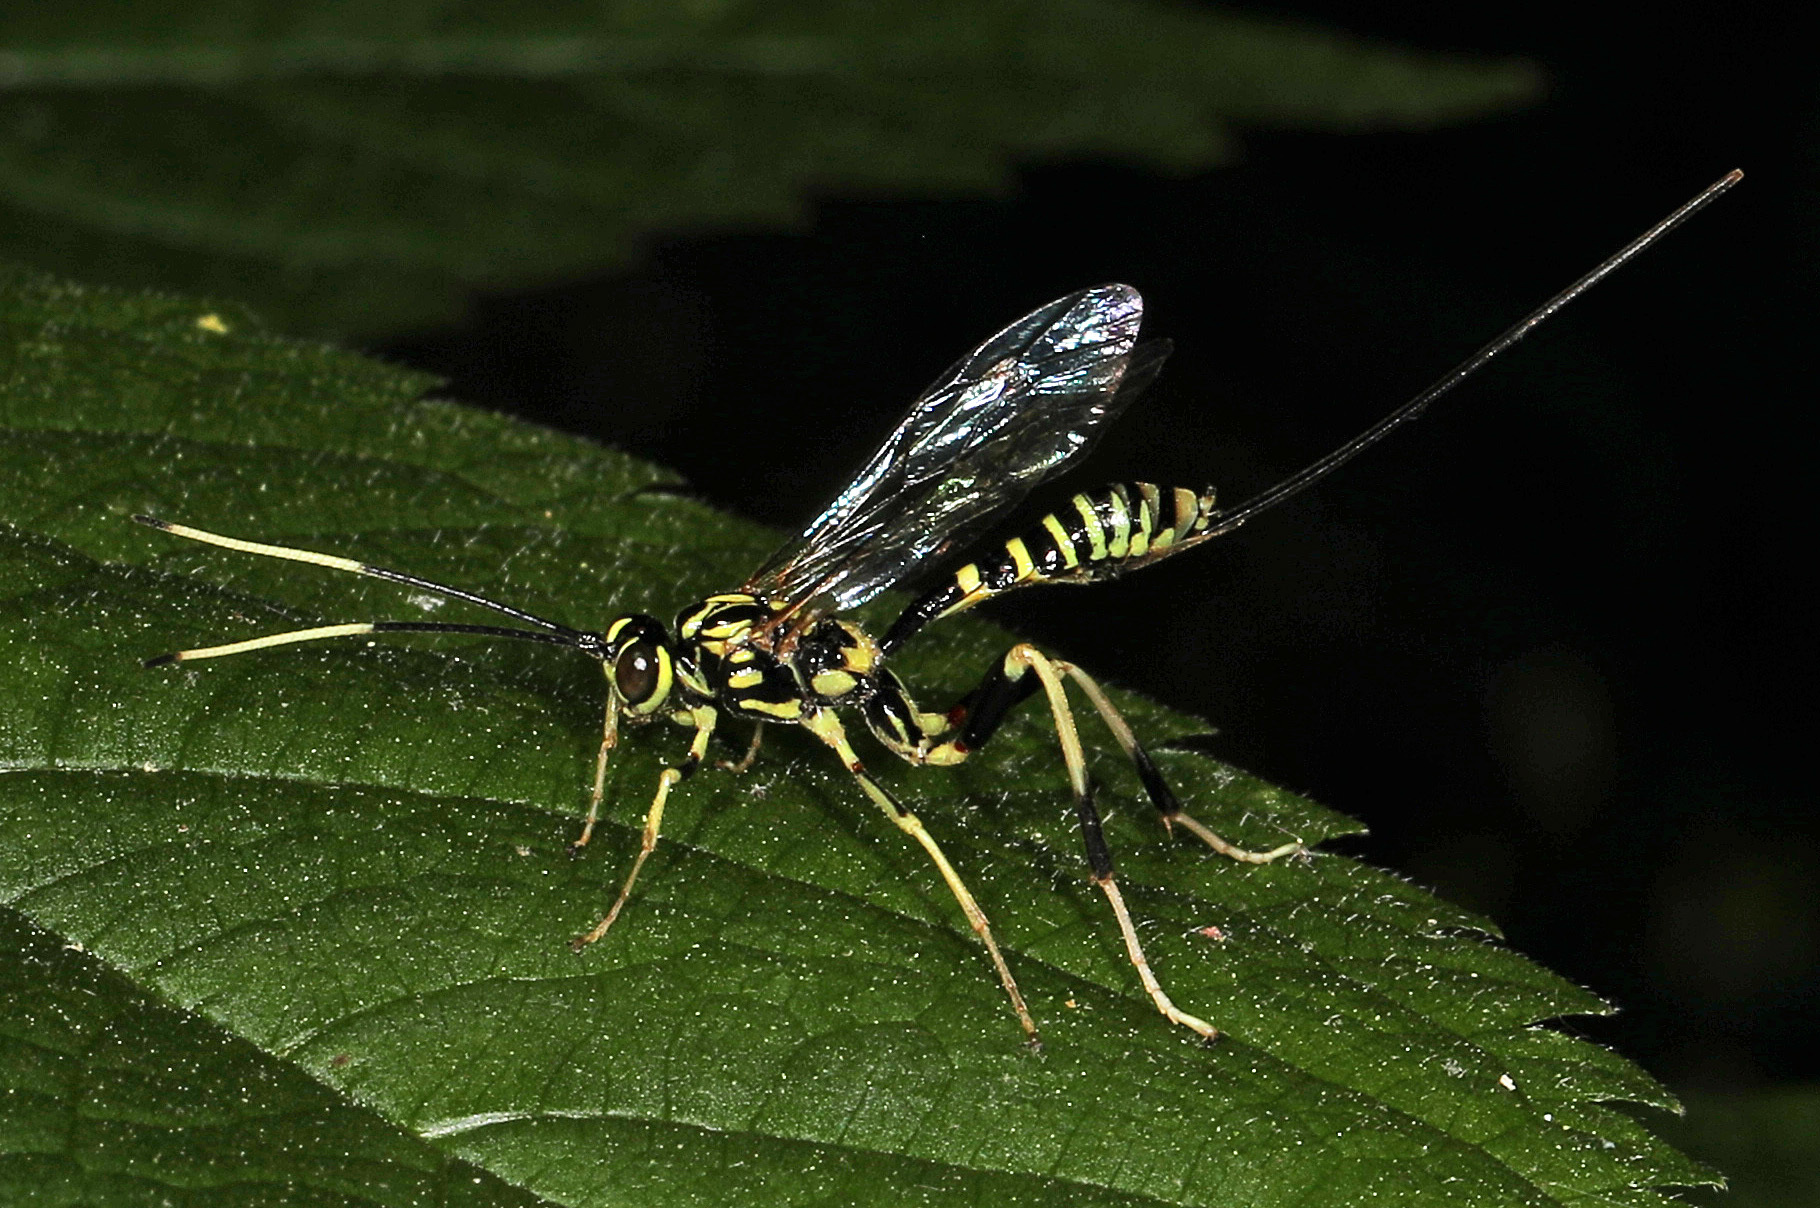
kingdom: Animalia
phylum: Arthropoda
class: Insecta
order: Hymenoptera
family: Ichneumonidae
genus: Arotes
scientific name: Arotes amoenus
